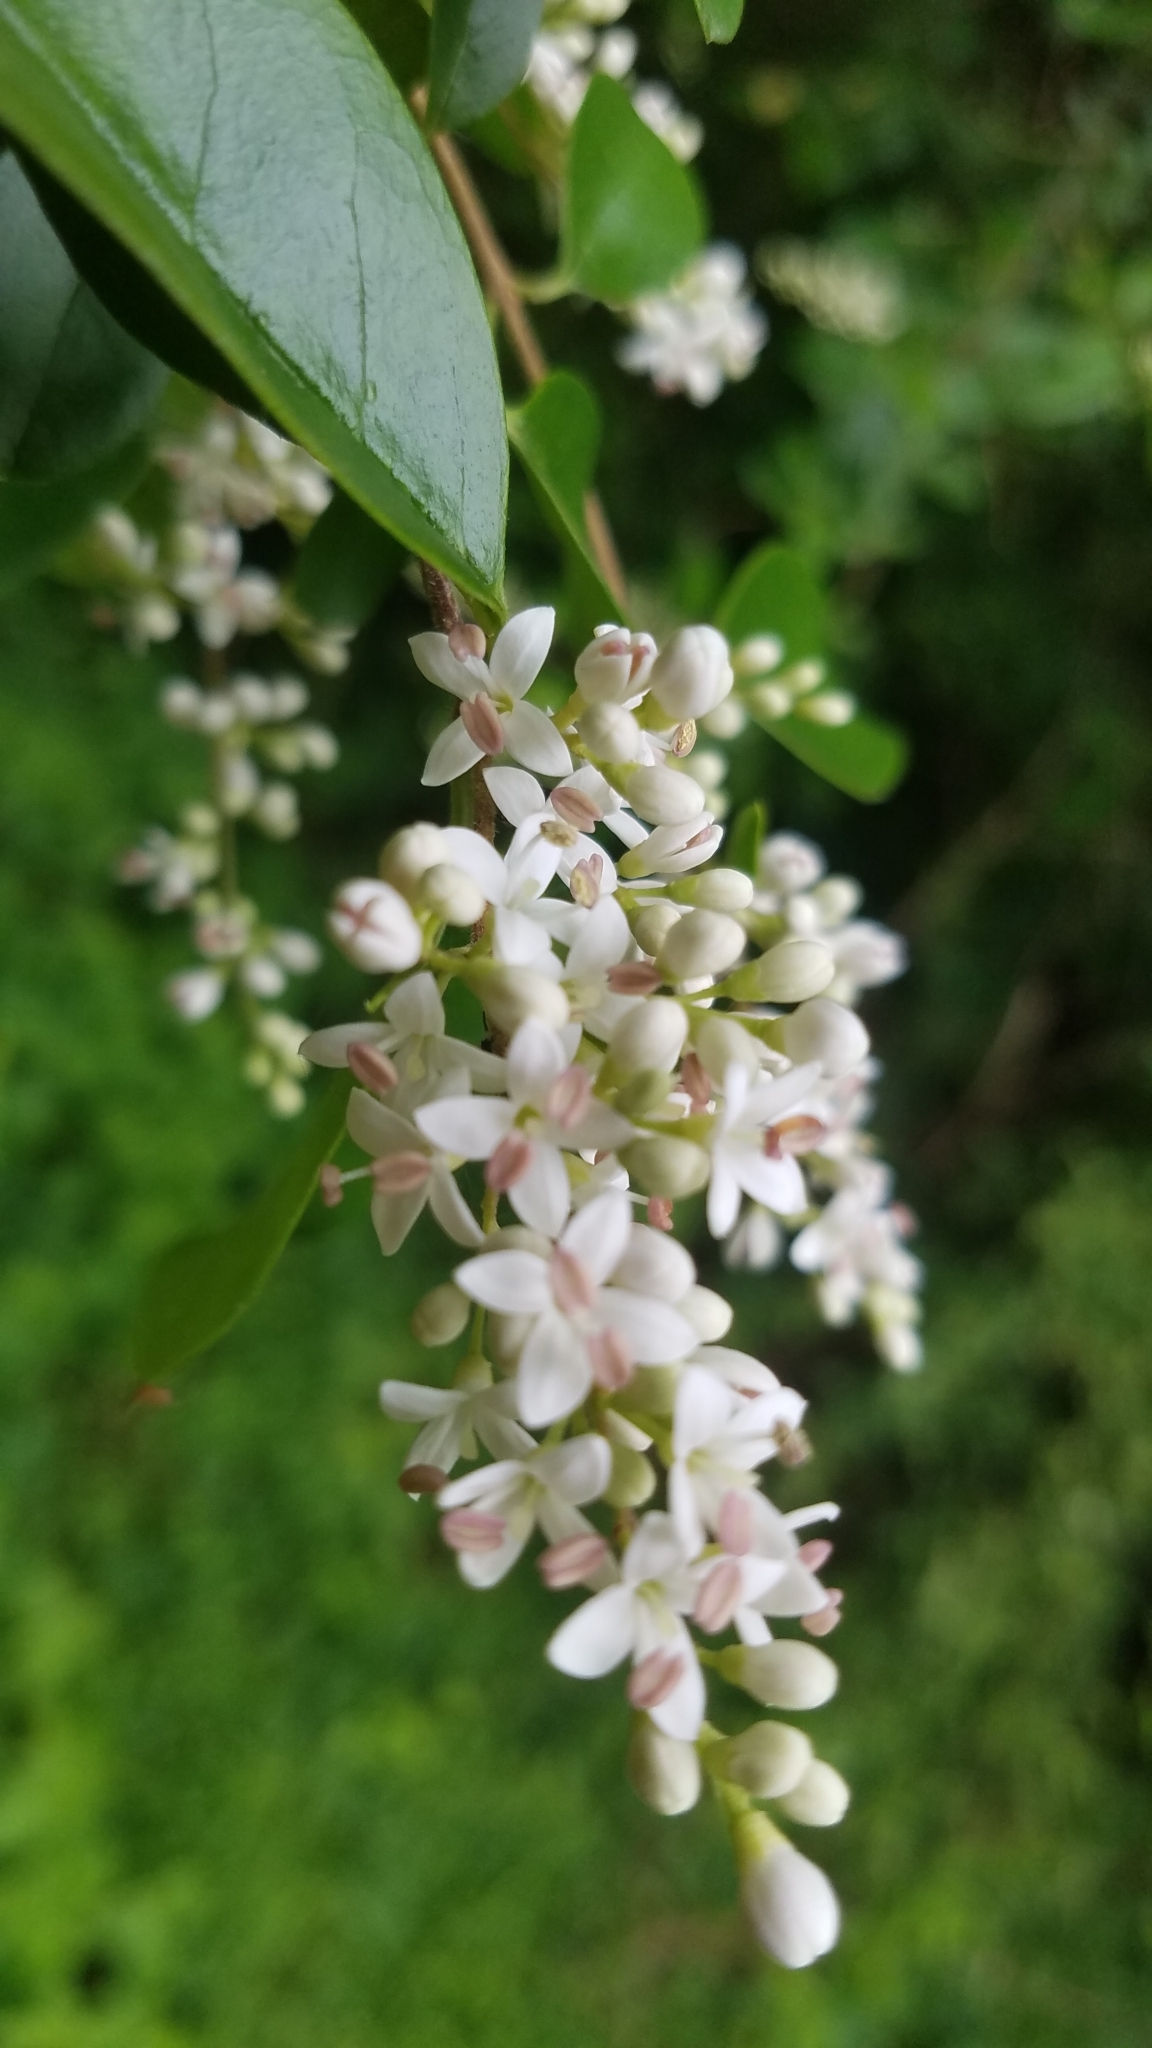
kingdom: Plantae
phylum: Tracheophyta
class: Magnoliopsida
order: Lamiales
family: Oleaceae
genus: Ligustrum
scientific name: Ligustrum sinense
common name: Chinese privet
